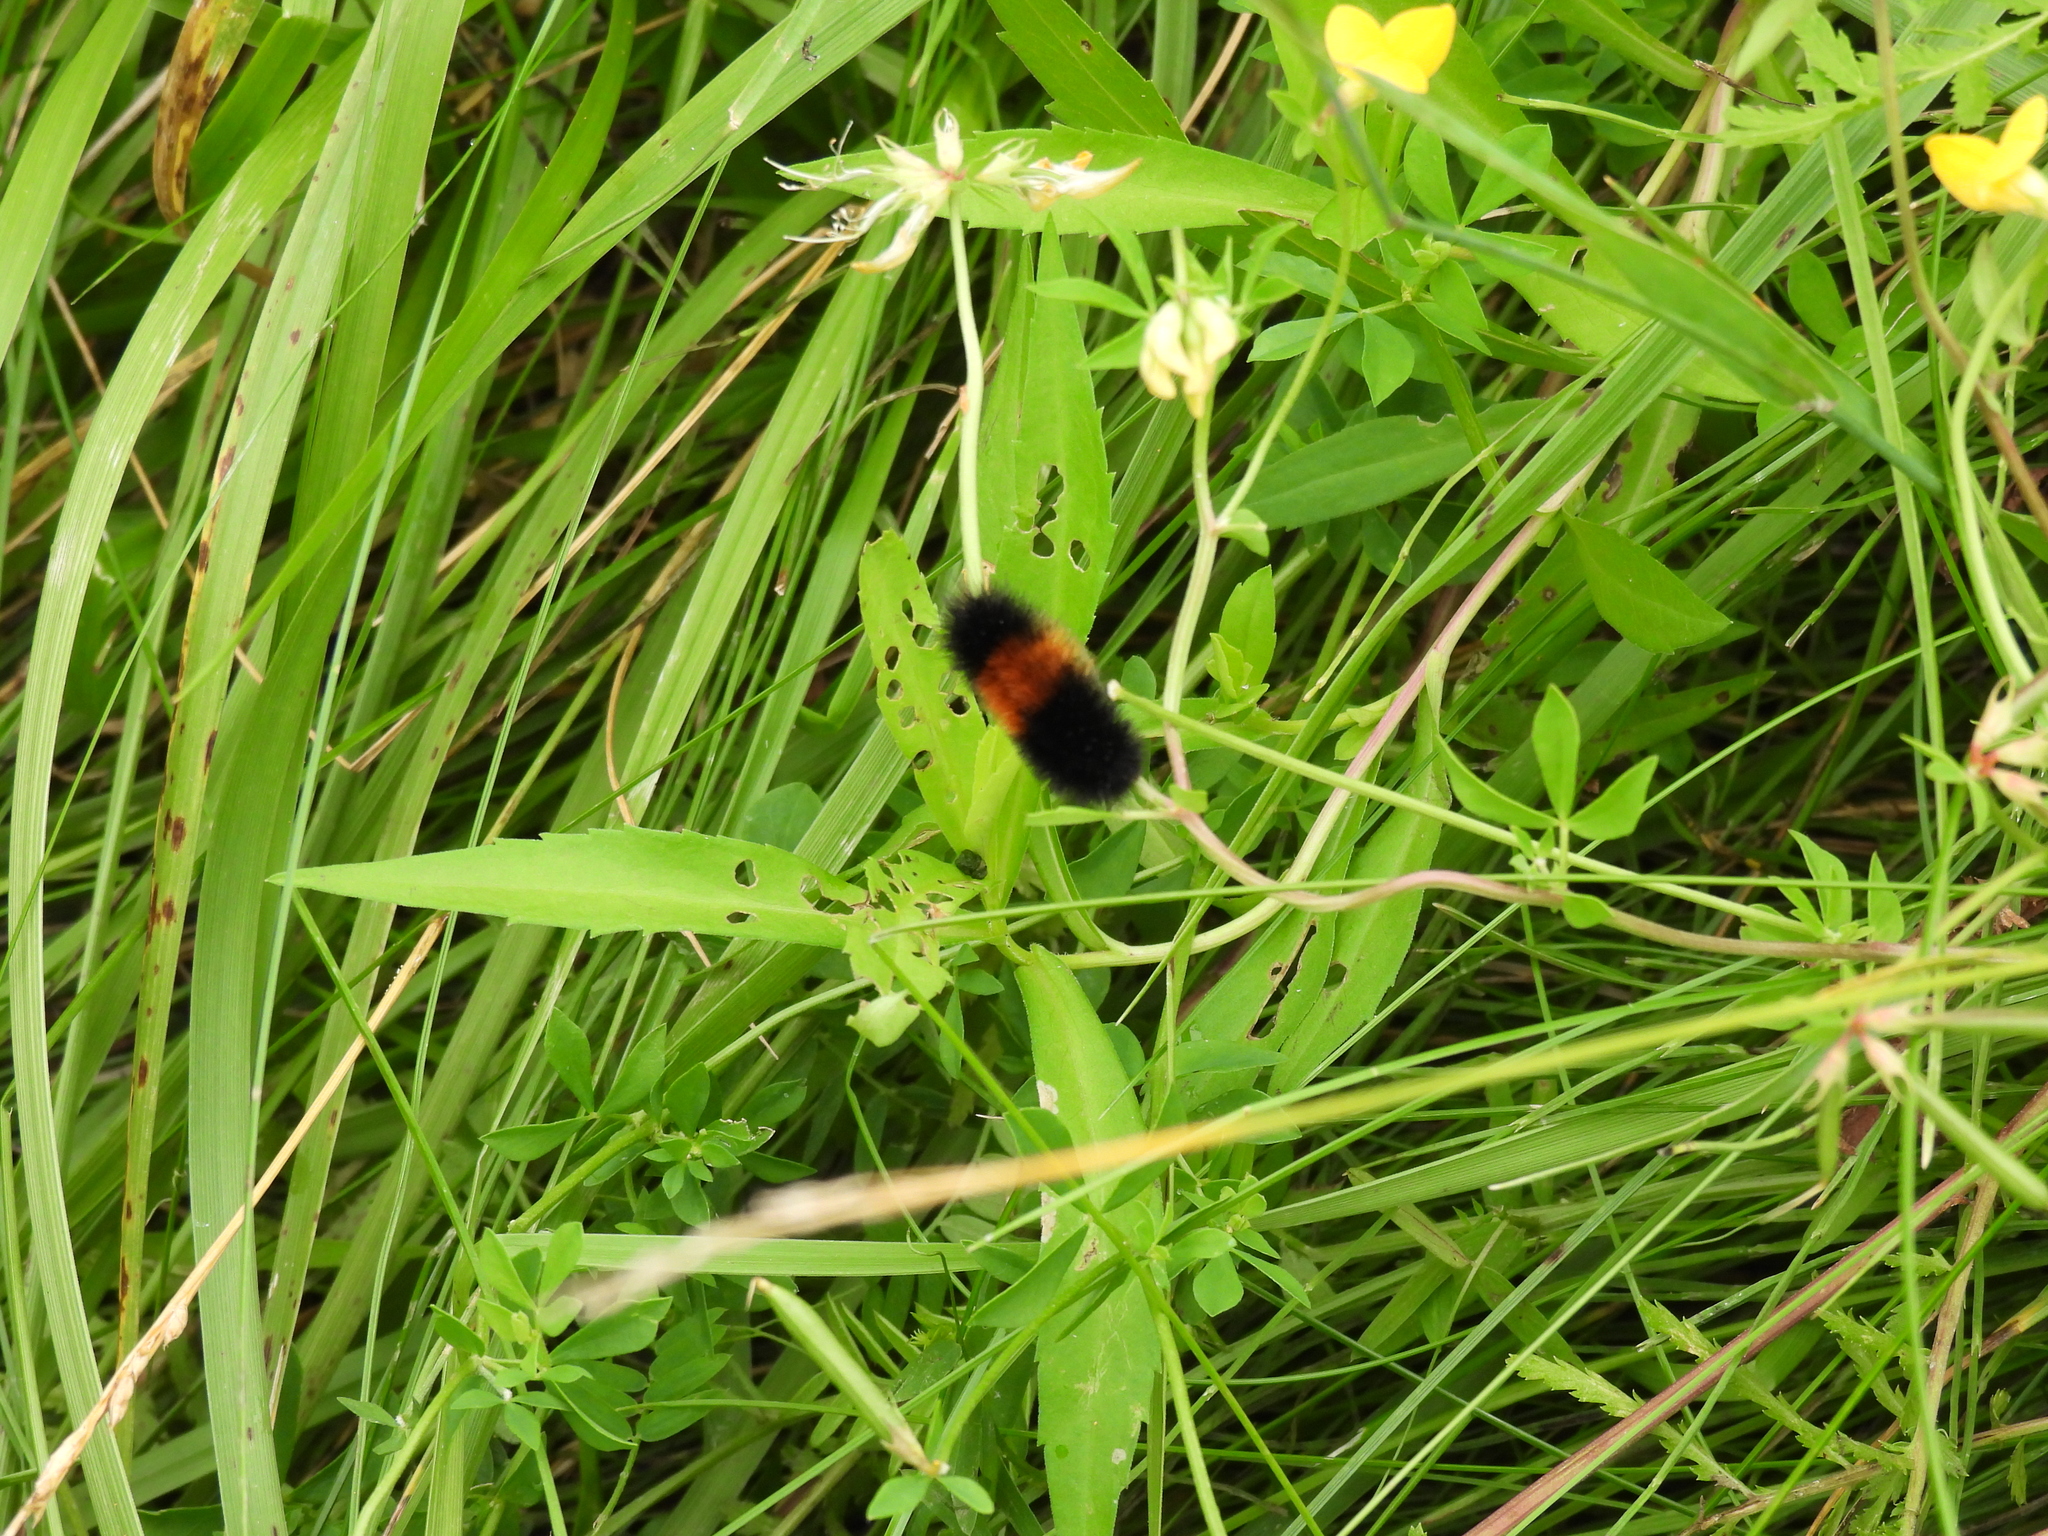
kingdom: Animalia
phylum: Arthropoda
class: Insecta
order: Lepidoptera
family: Erebidae
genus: Pyrrharctia
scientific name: Pyrrharctia isabella
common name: Isabella tiger moth
